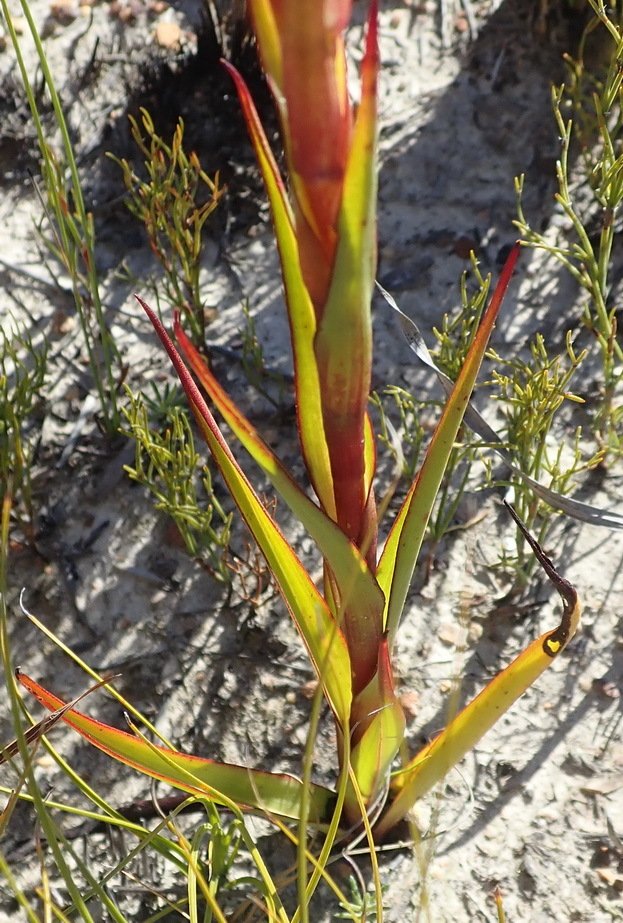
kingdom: Plantae
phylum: Tracheophyta
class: Liliopsida
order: Asparagales
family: Orchidaceae
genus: Disa
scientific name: Disa reticulata
